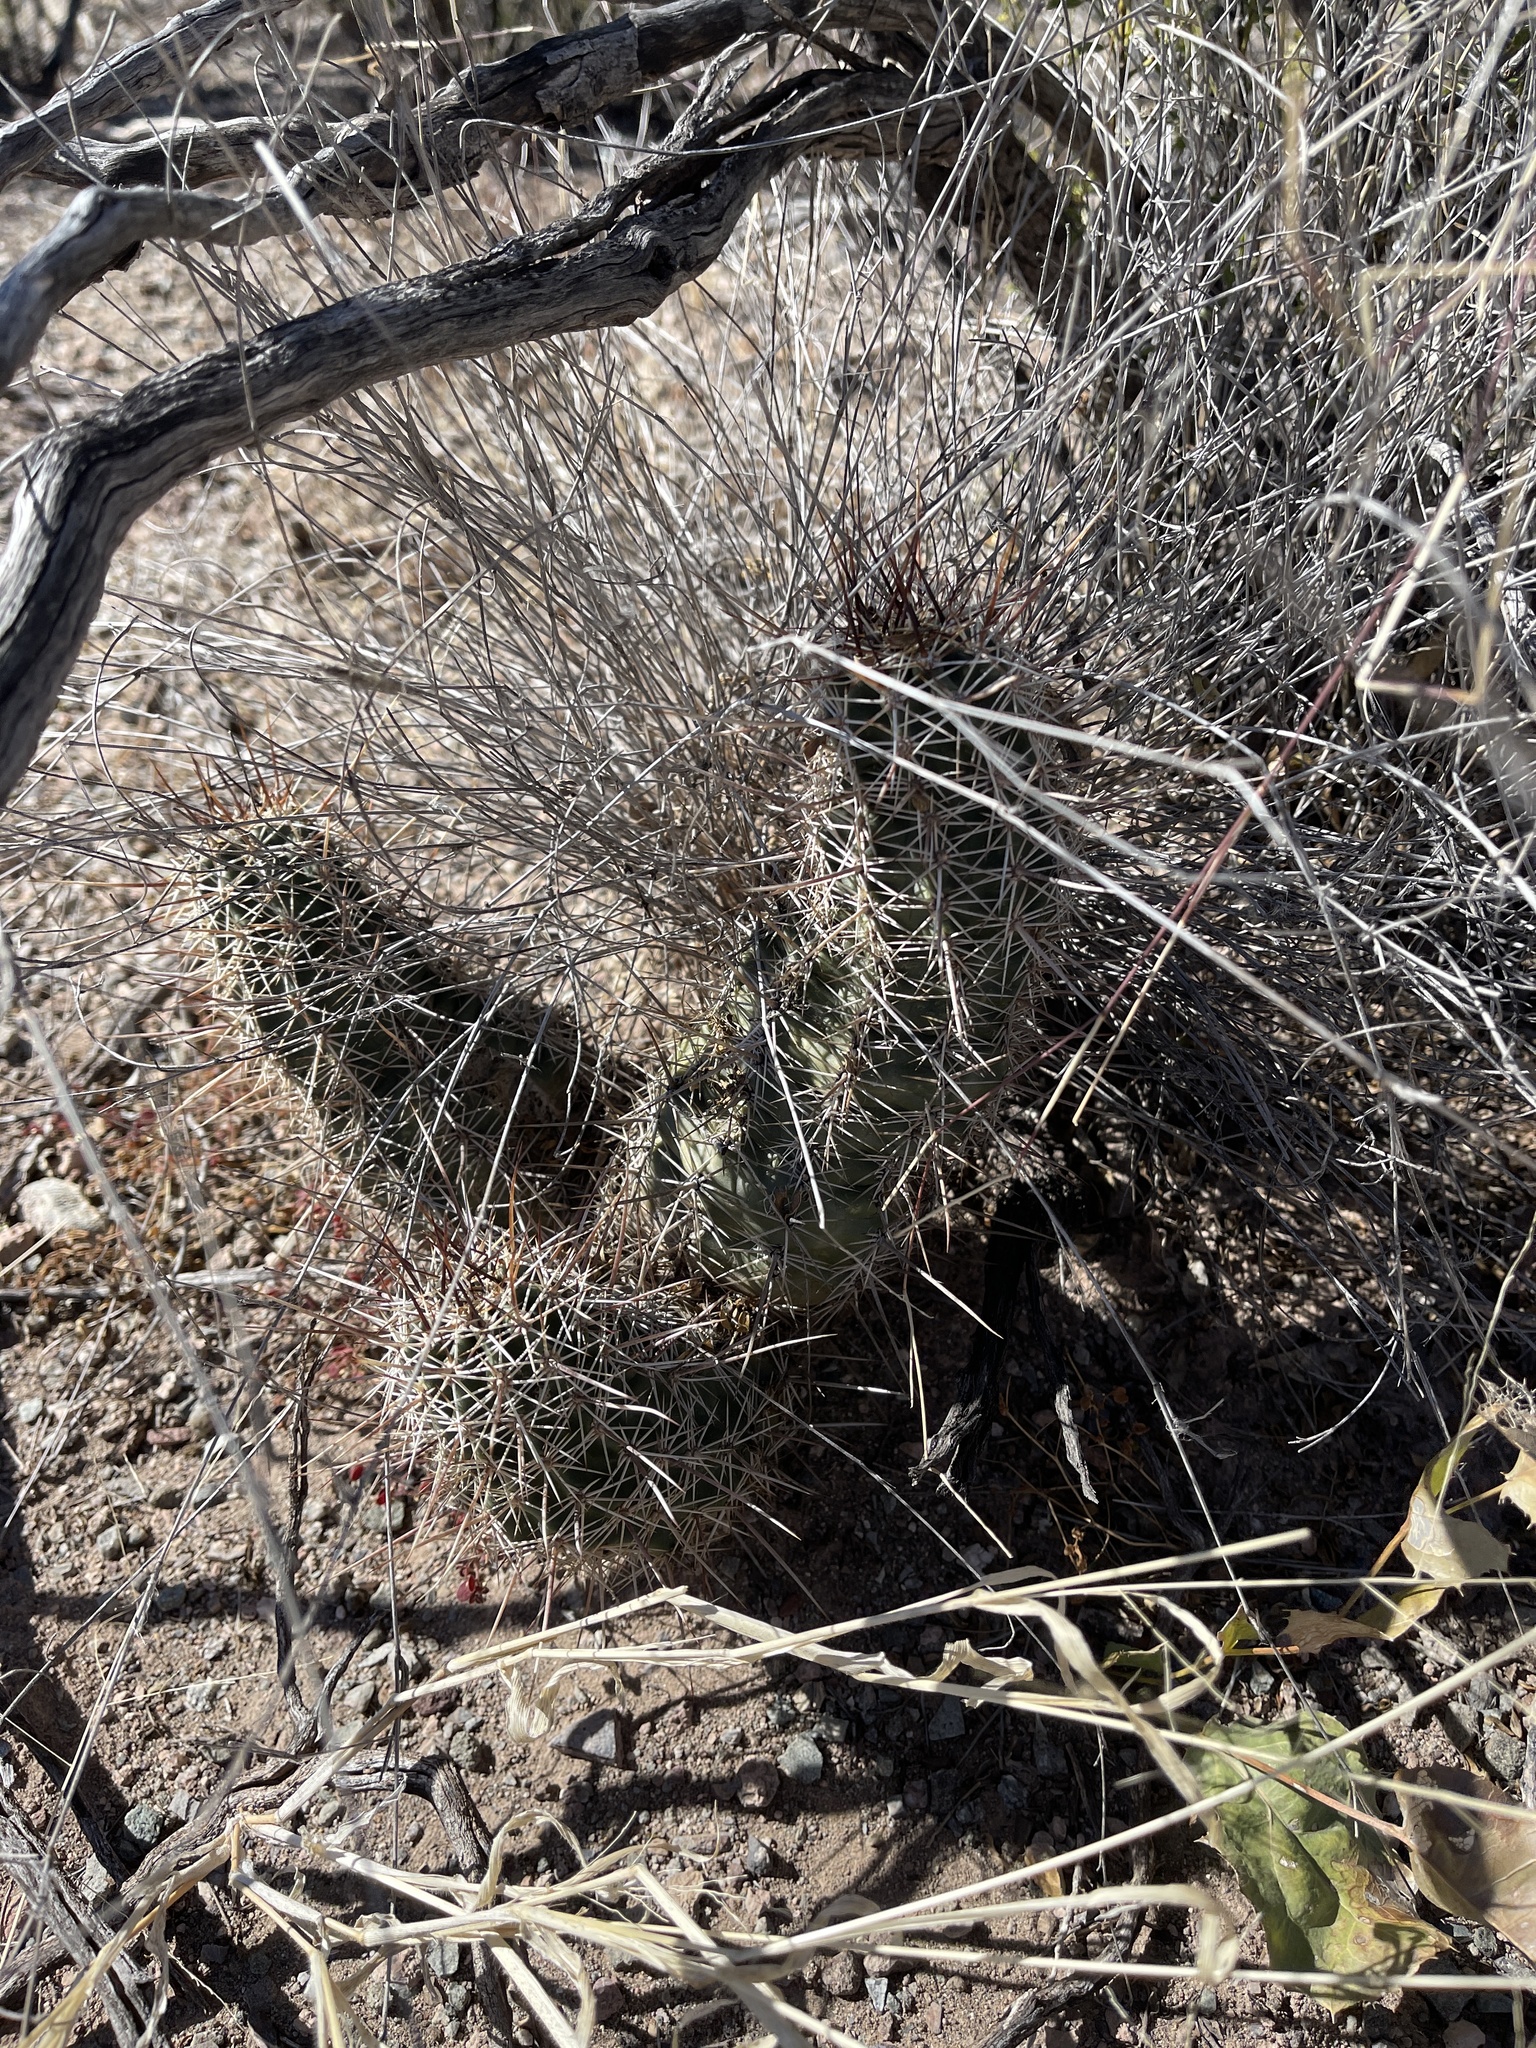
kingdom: Plantae
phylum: Tracheophyta
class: Magnoliopsida
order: Caryophyllales
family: Cactaceae
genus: Echinocereus
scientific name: Echinocereus fasciculatus
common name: Bundle hedgehog
